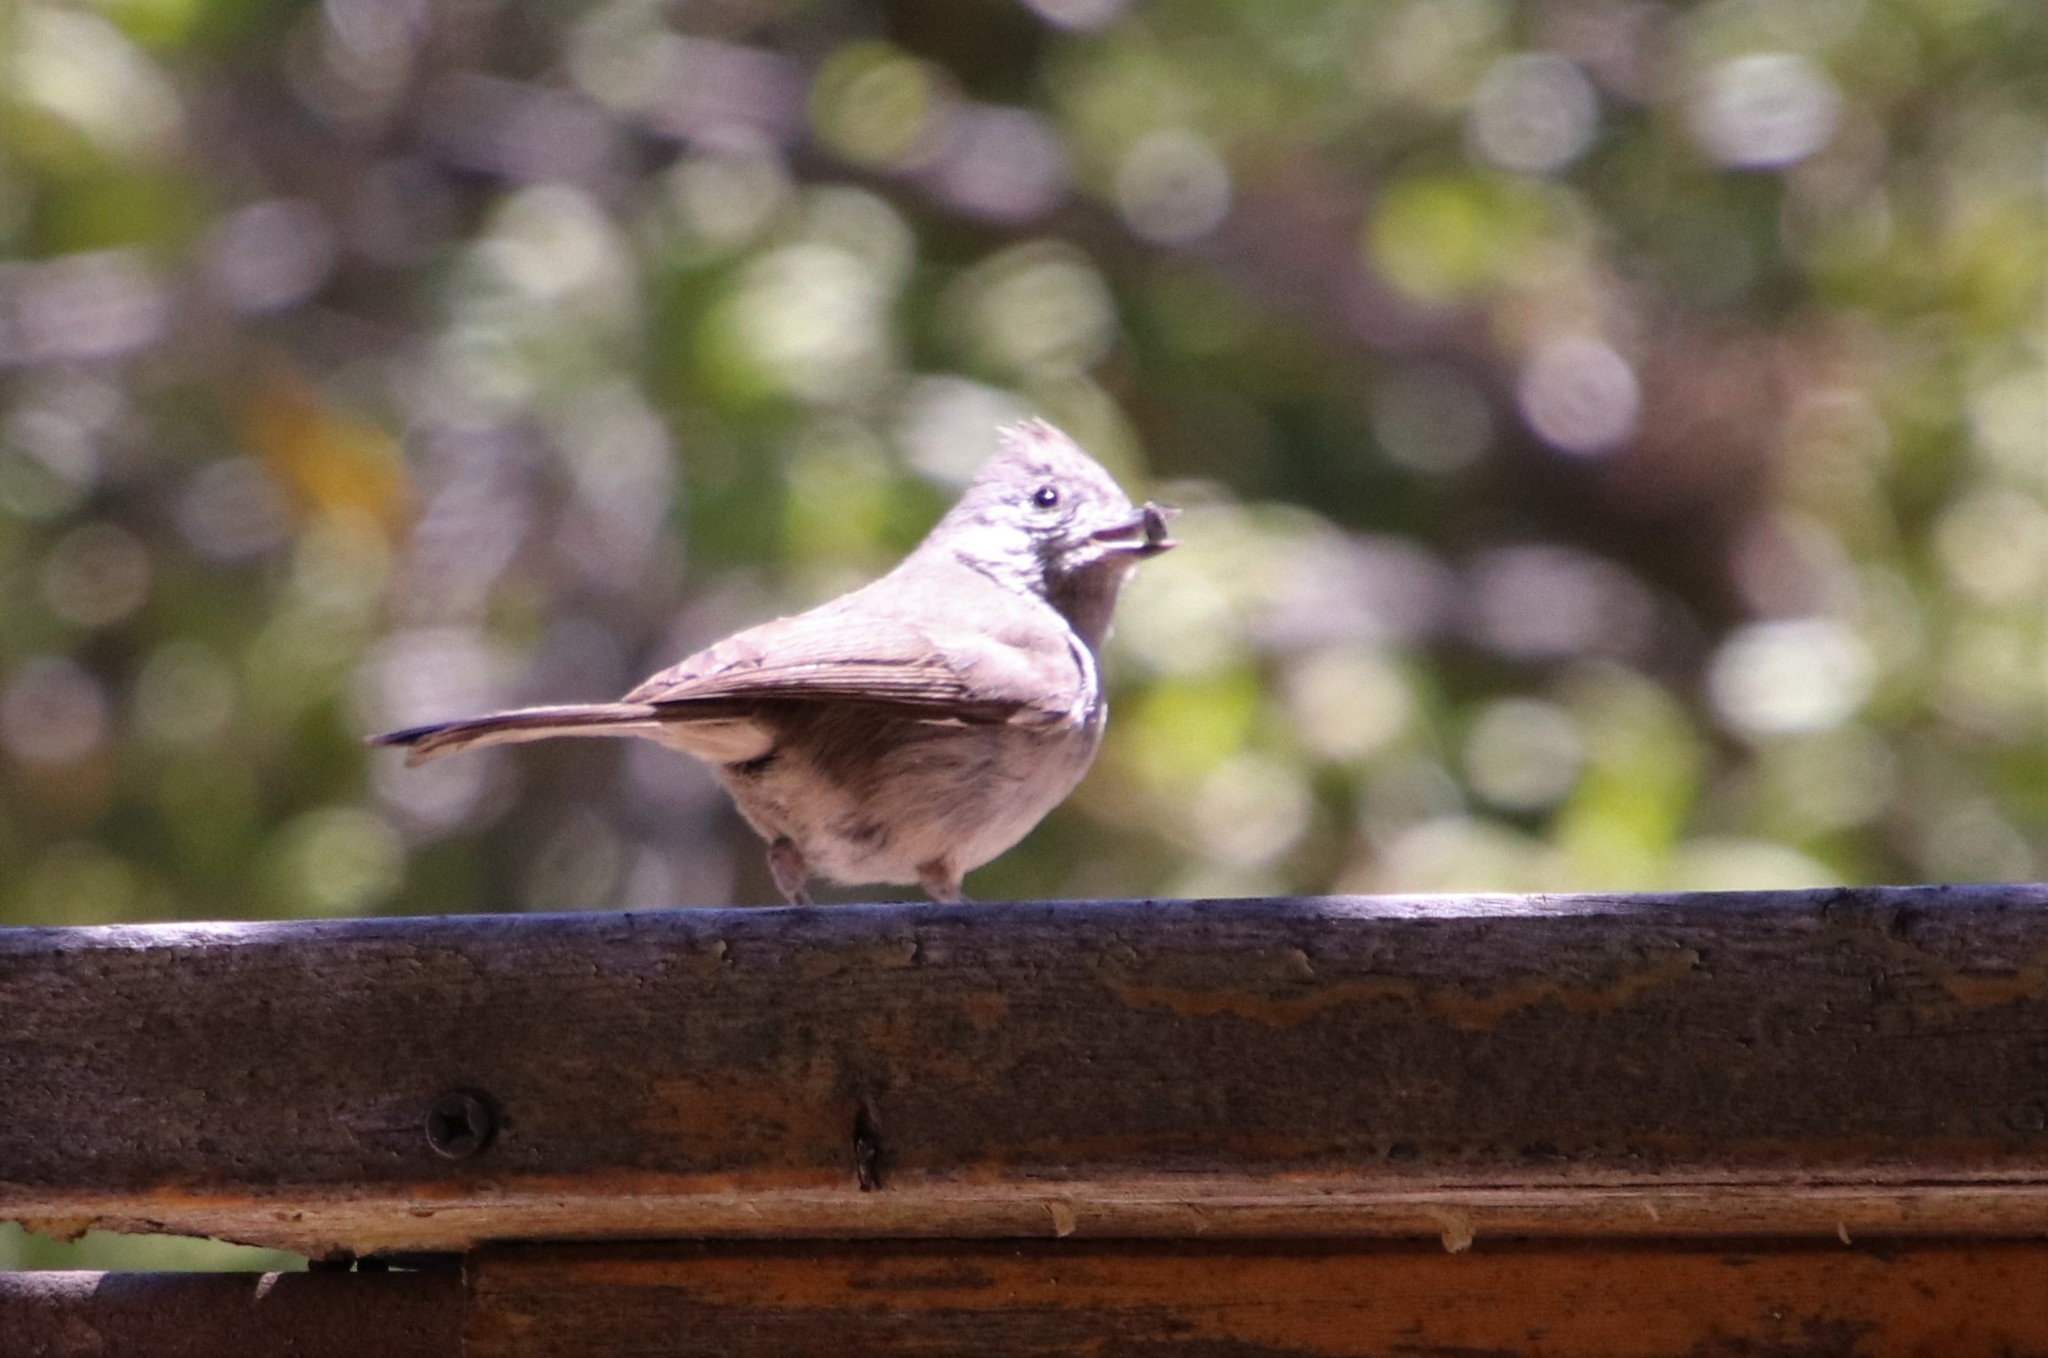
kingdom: Animalia
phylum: Chordata
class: Aves
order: Passeriformes
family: Paridae
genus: Baeolophus
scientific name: Baeolophus inornatus
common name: Oak titmouse
